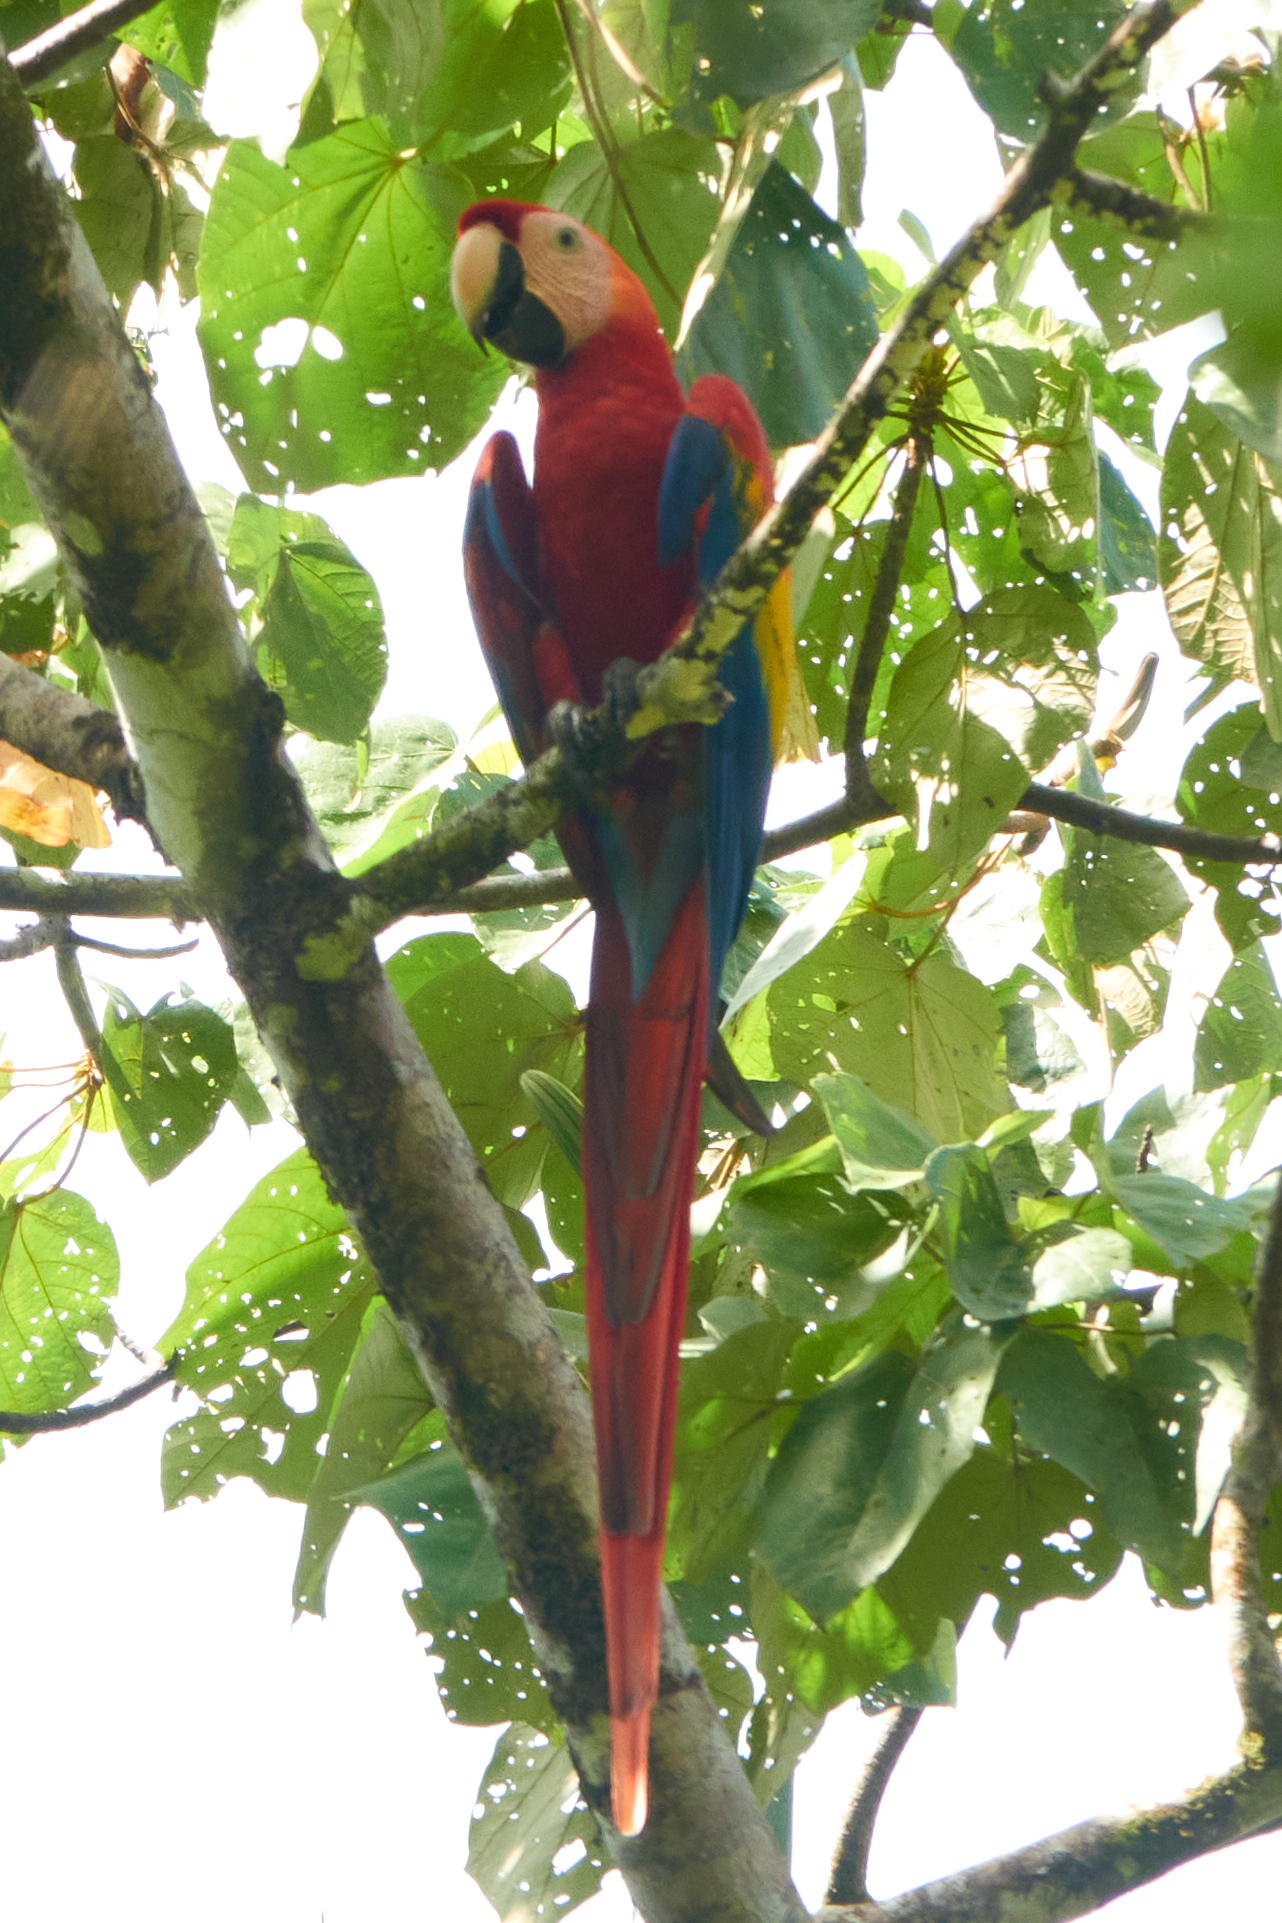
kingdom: Animalia
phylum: Chordata
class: Aves
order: Psittaciformes
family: Psittacidae
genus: Ara
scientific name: Ara macao
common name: Scarlet macaw
